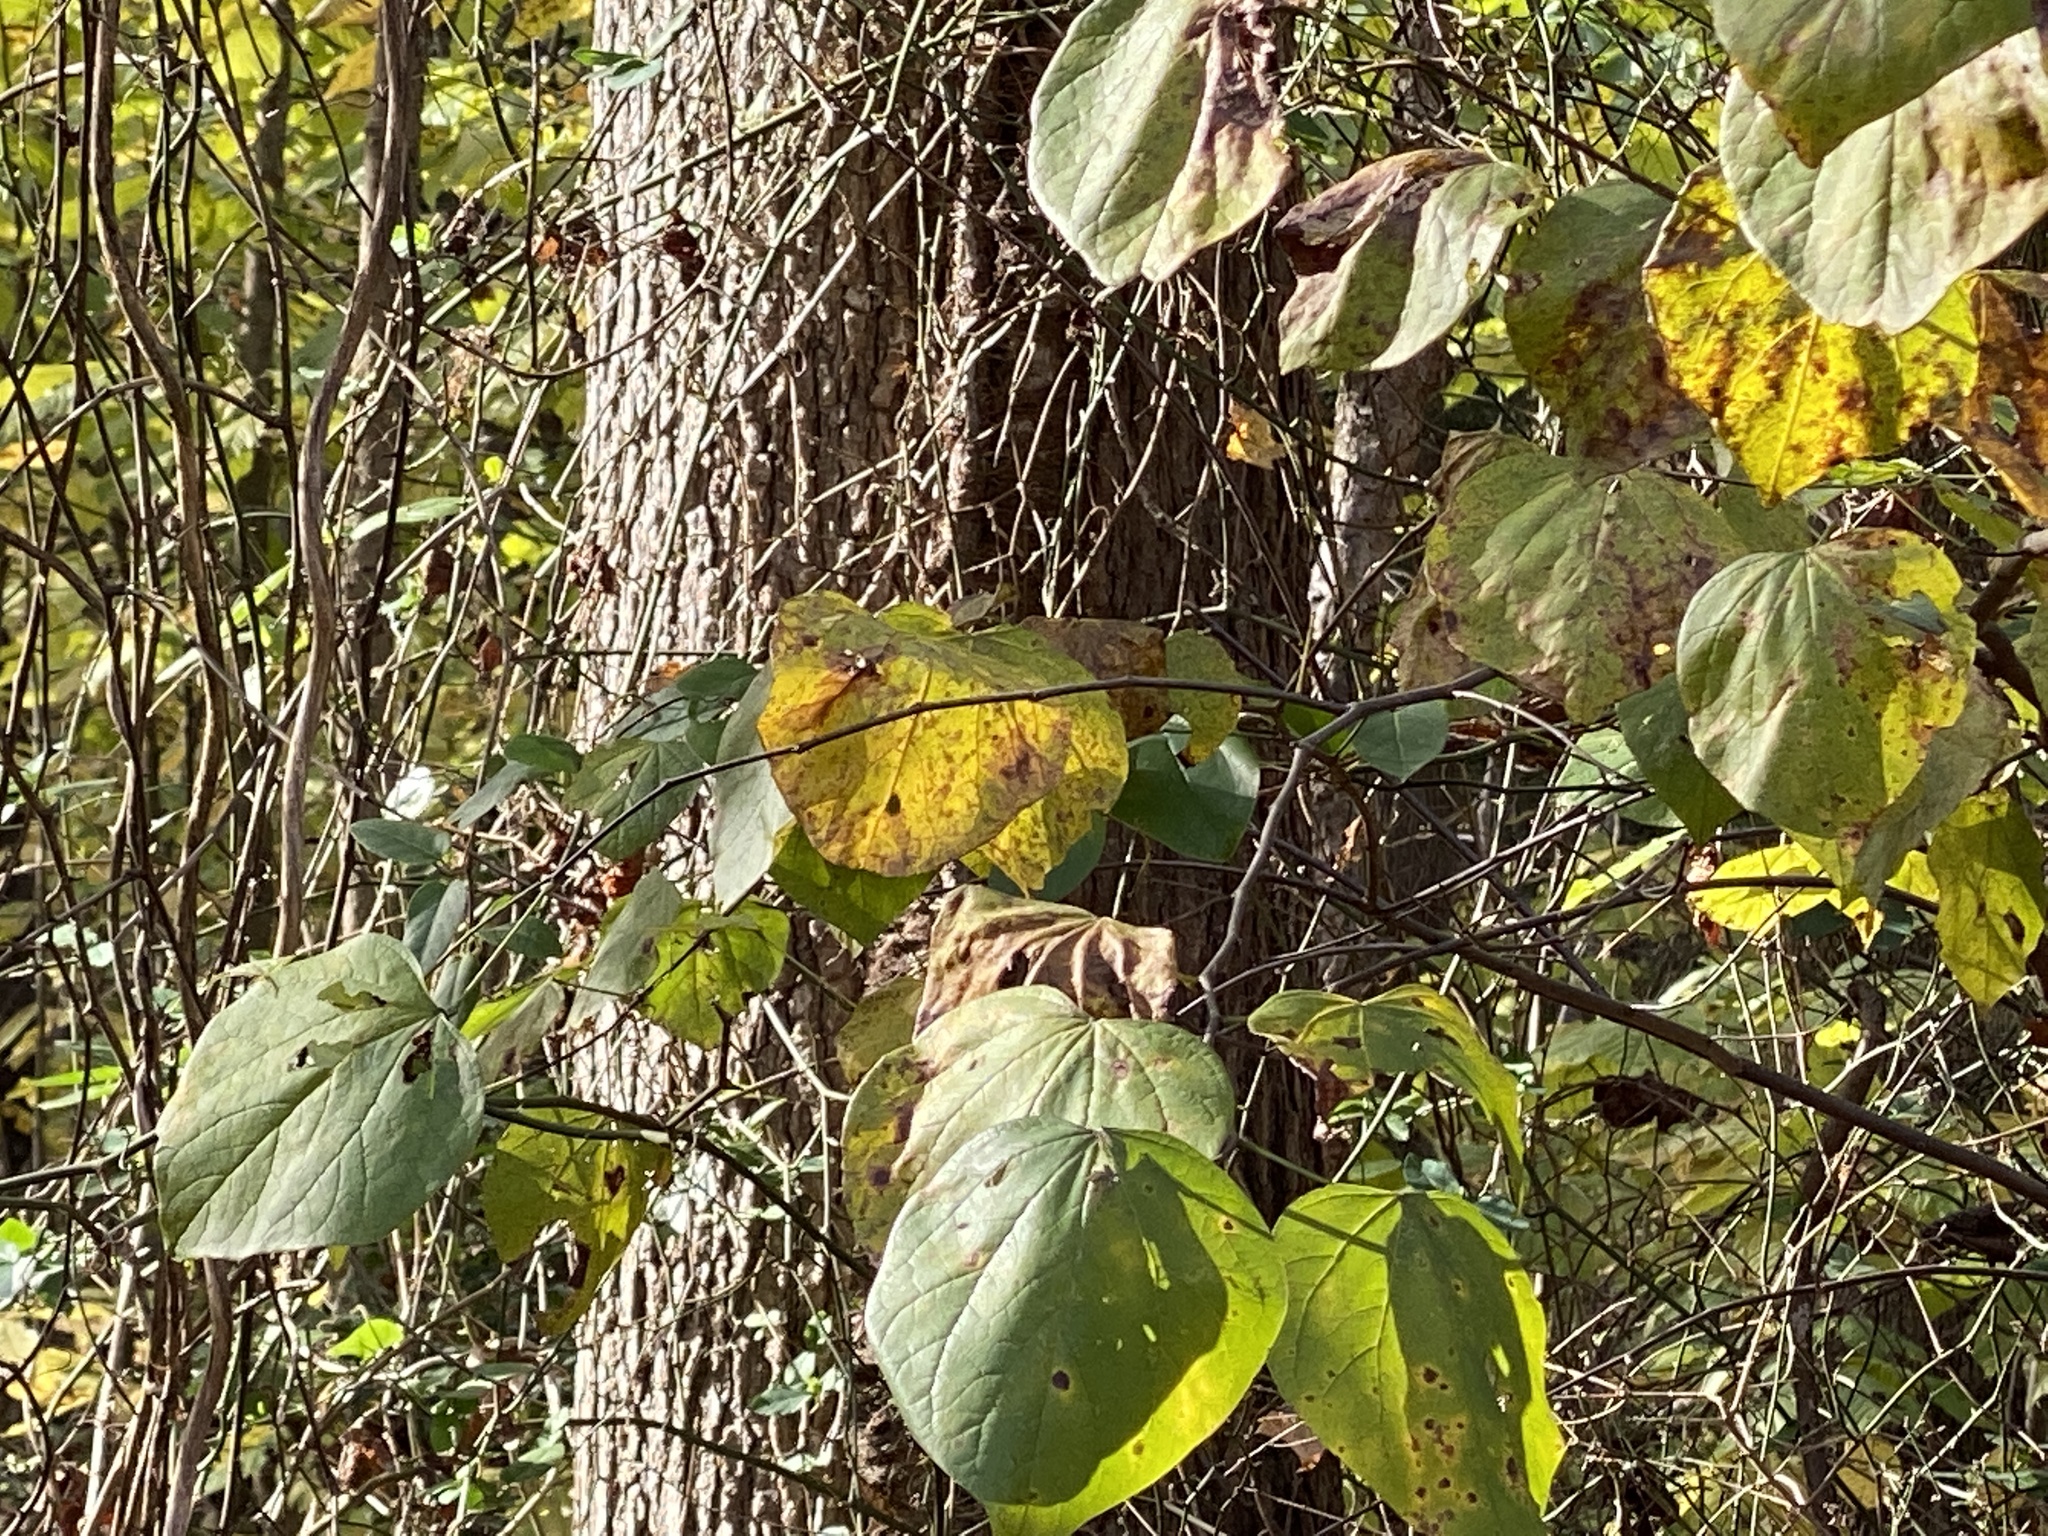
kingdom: Plantae
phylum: Tracheophyta
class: Magnoliopsida
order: Fabales
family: Fabaceae
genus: Cercis
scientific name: Cercis canadensis
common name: Eastern redbud
